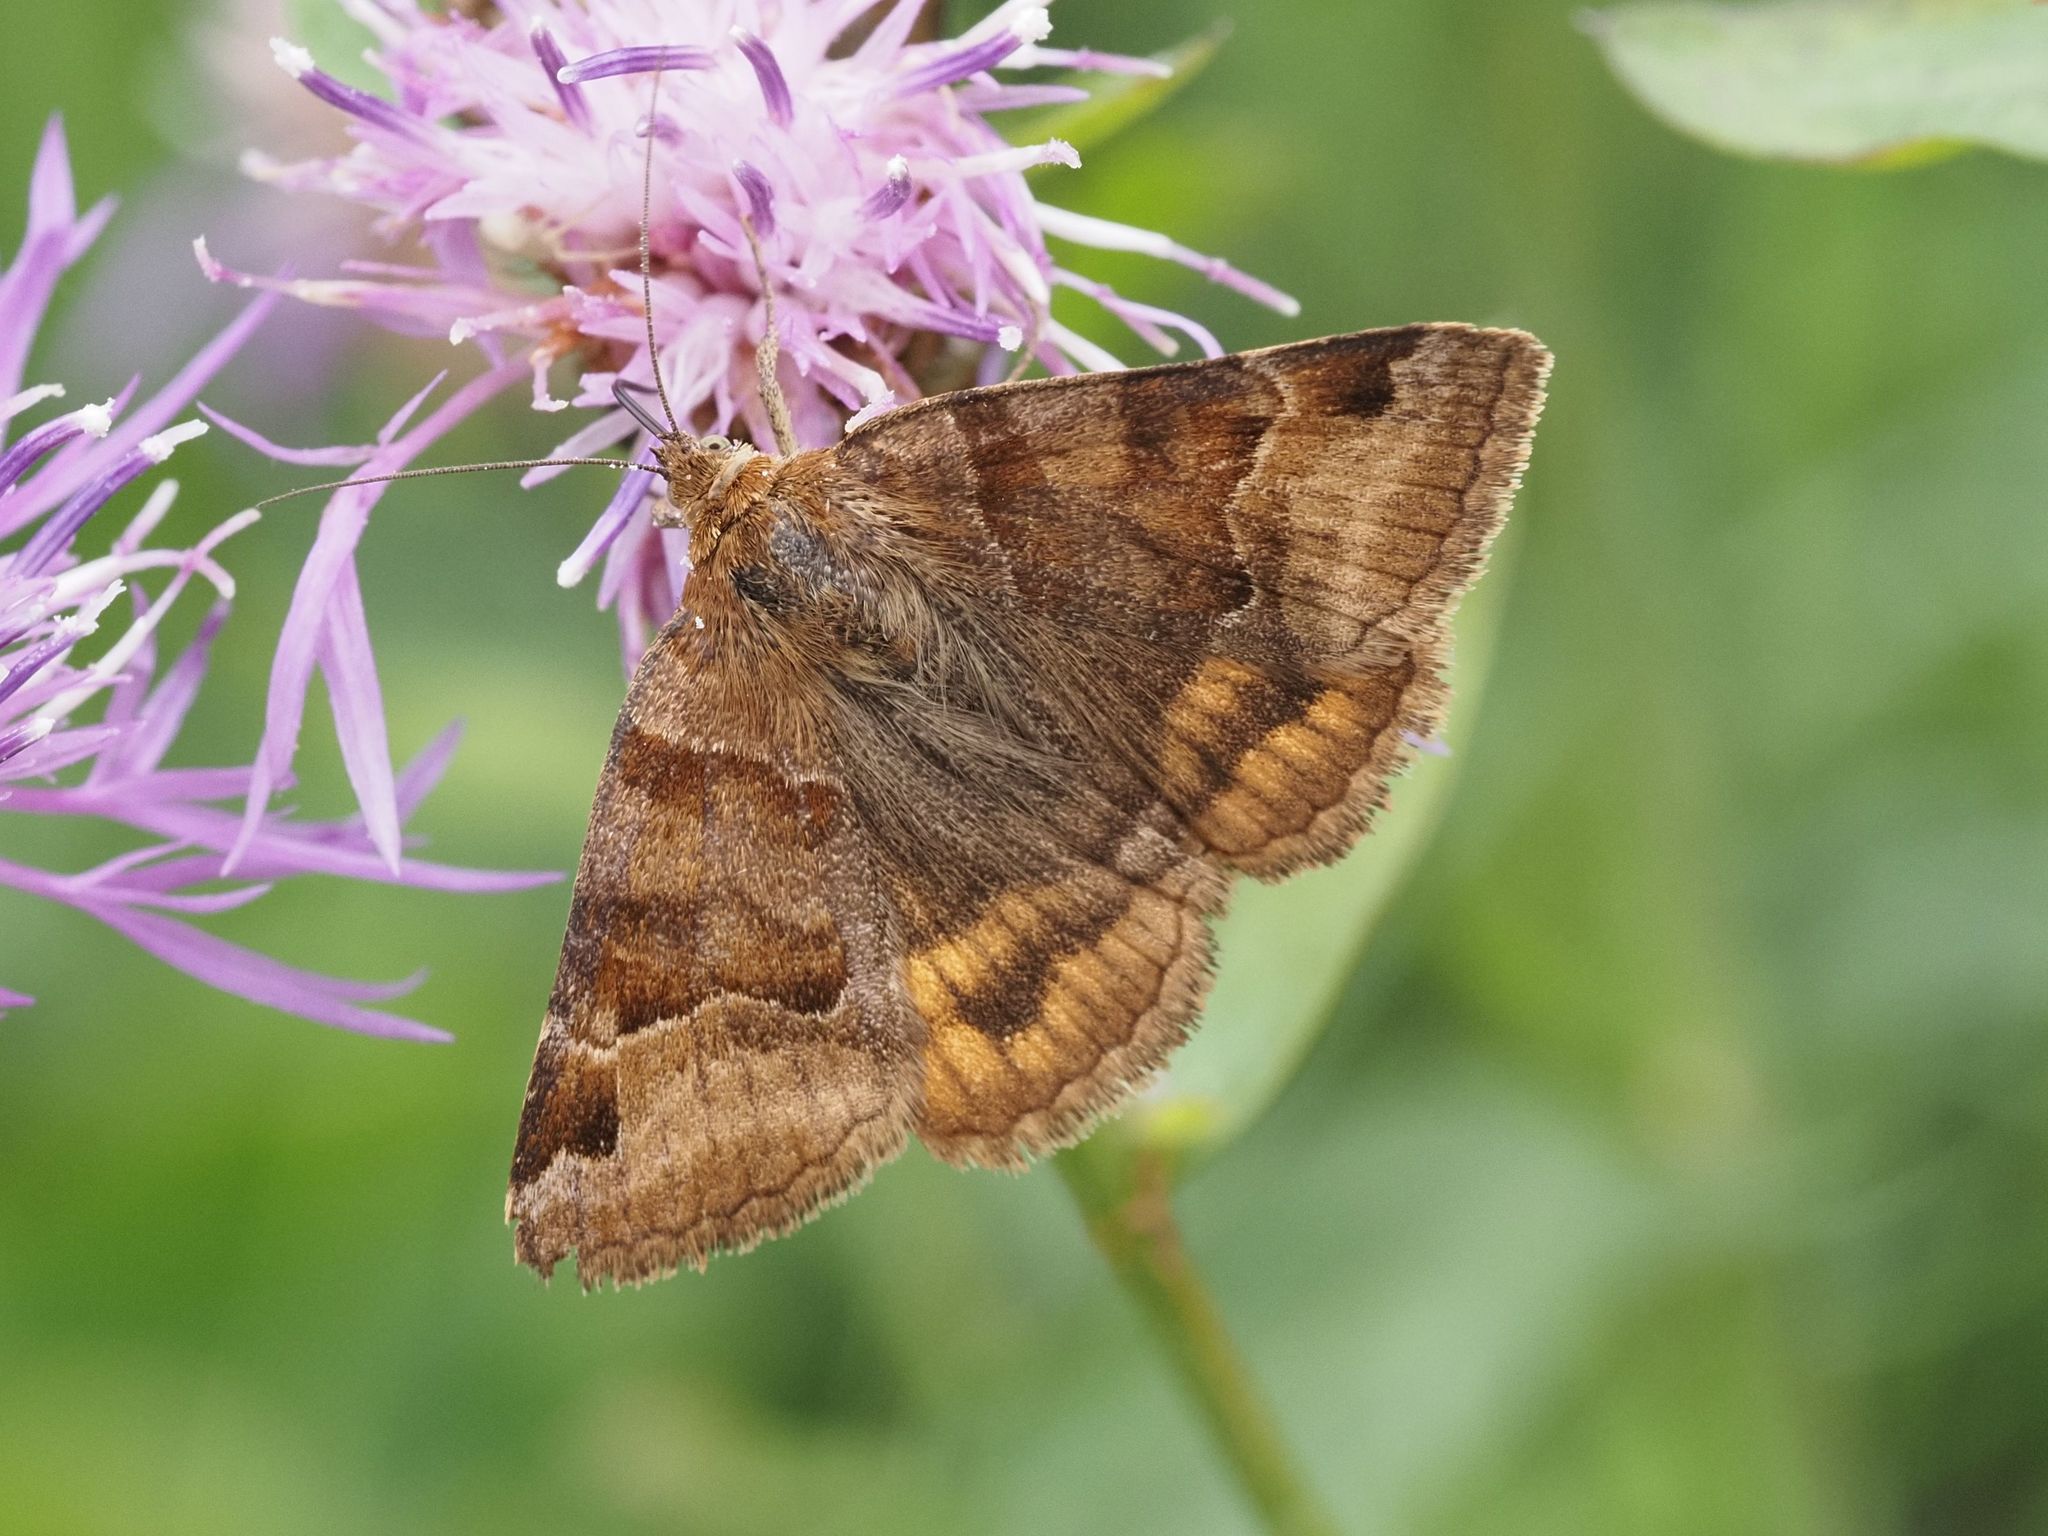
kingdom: Animalia
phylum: Arthropoda
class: Insecta
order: Lepidoptera
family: Erebidae
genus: Euclidia
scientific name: Euclidia glyphica
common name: Burnet companion
